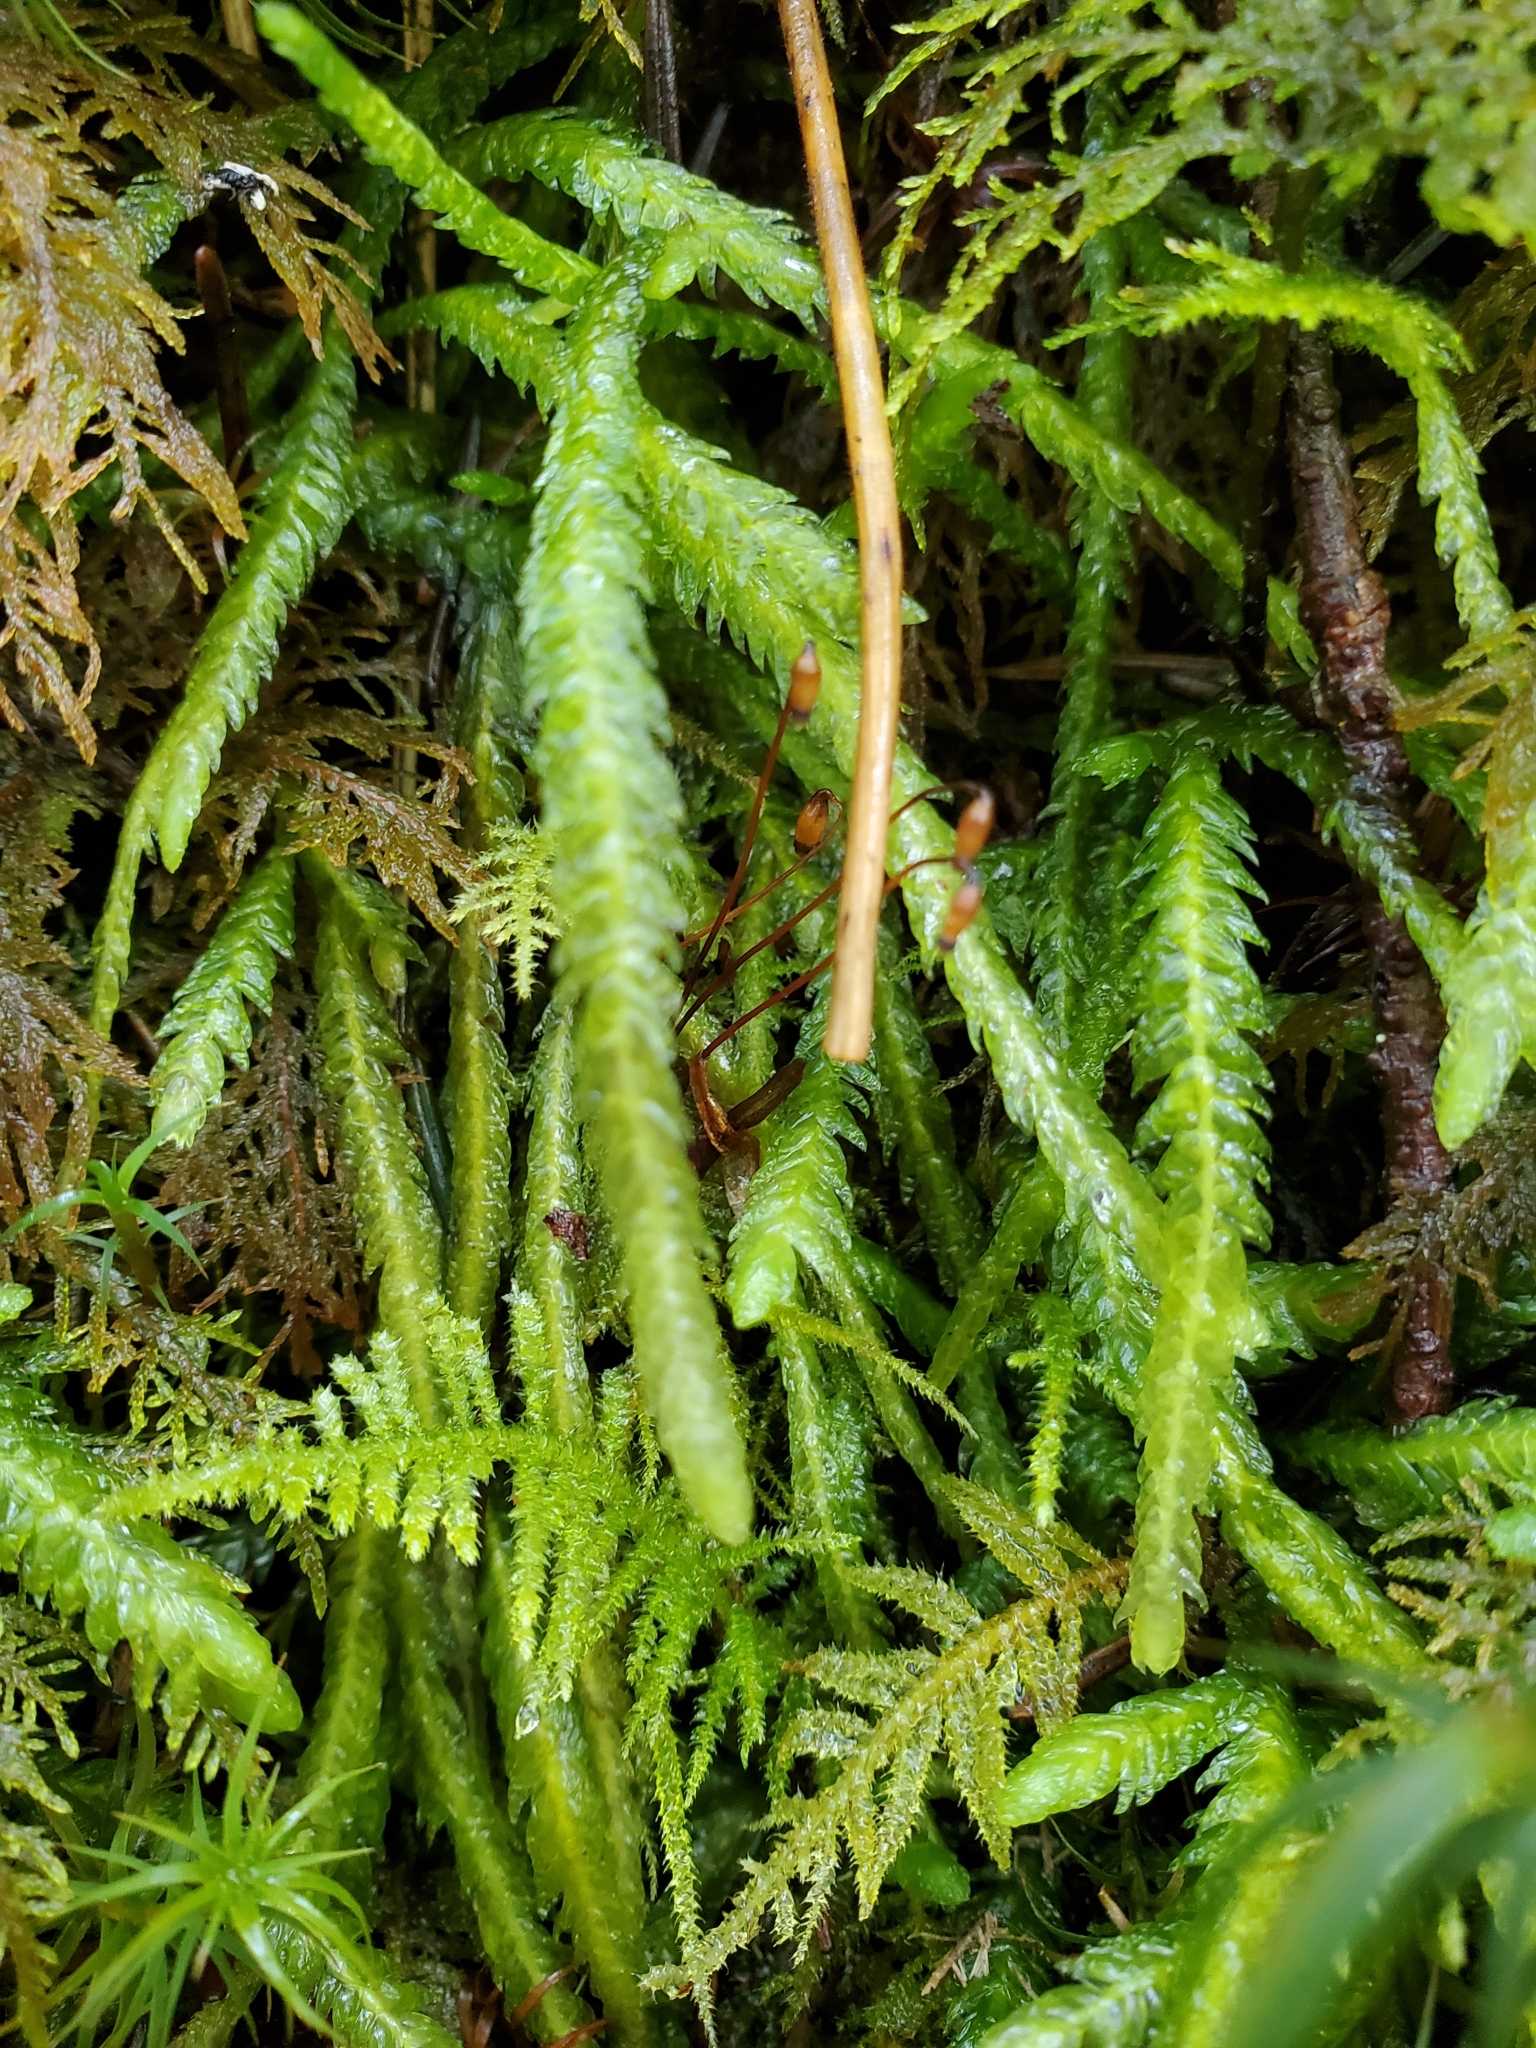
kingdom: Plantae
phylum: Bryophyta
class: Bryopsida
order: Hypnales
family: Plagiotheciaceae
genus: Plagiothecium
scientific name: Plagiothecium undulatum
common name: Waved silk-moss
